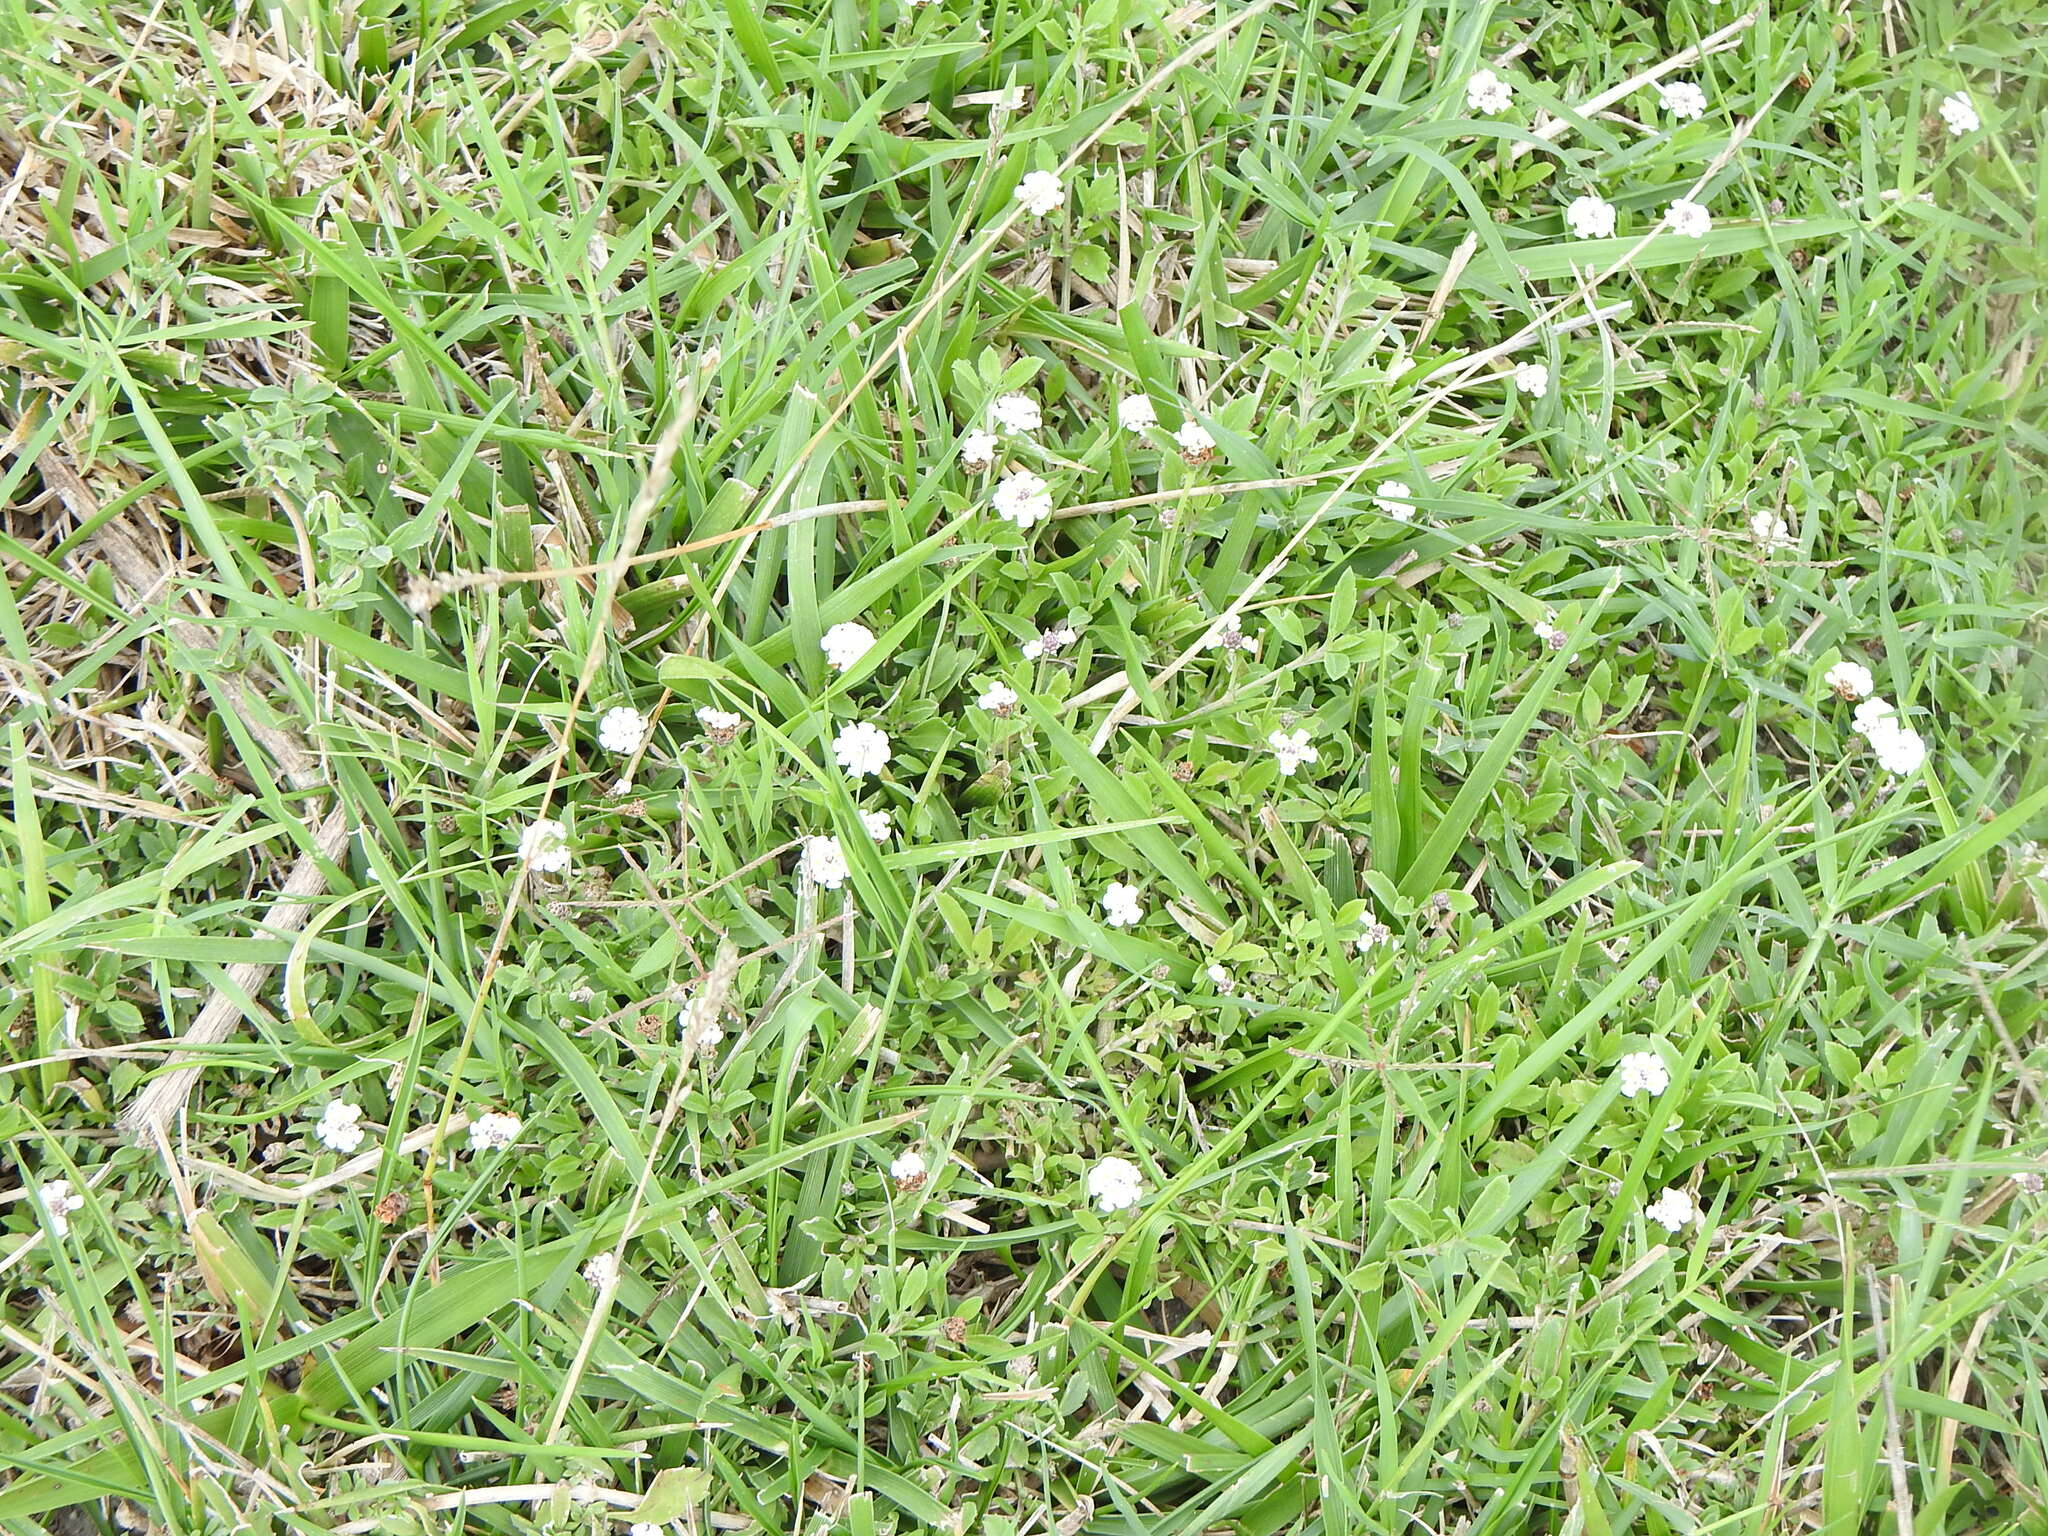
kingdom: Plantae
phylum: Tracheophyta
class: Magnoliopsida
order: Lamiales
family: Verbenaceae
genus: Phyla
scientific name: Phyla nodiflora
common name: Frogfruit
